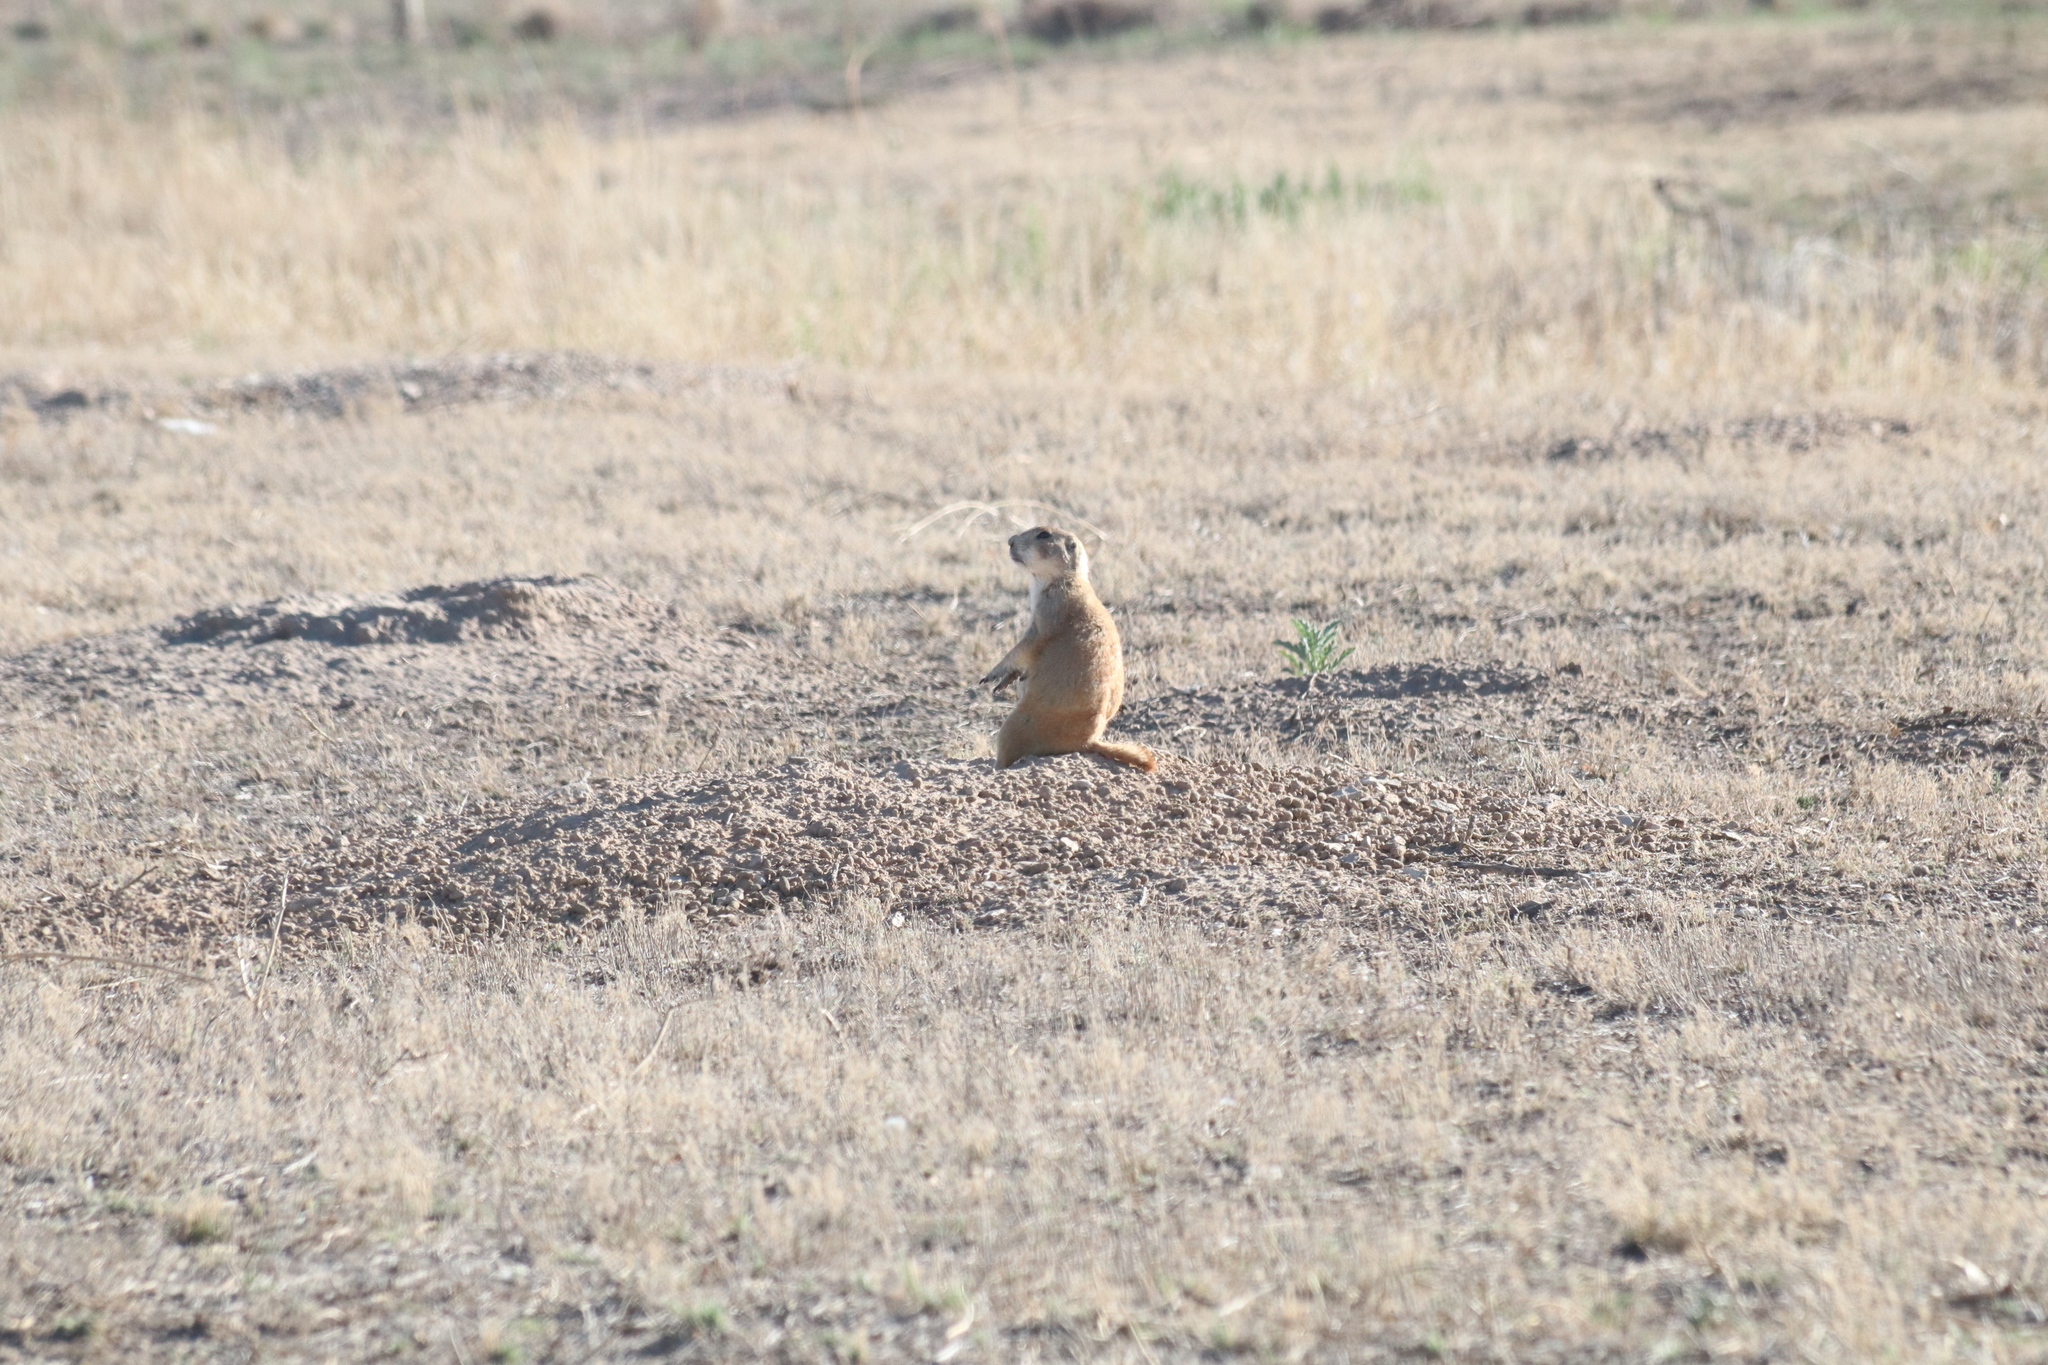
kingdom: Animalia
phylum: Chordata
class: Mammalia
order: Rodentia
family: Sciuridae
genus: Cynomys
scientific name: Cynomys ludovicianus
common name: Black-tailed prairie dog
